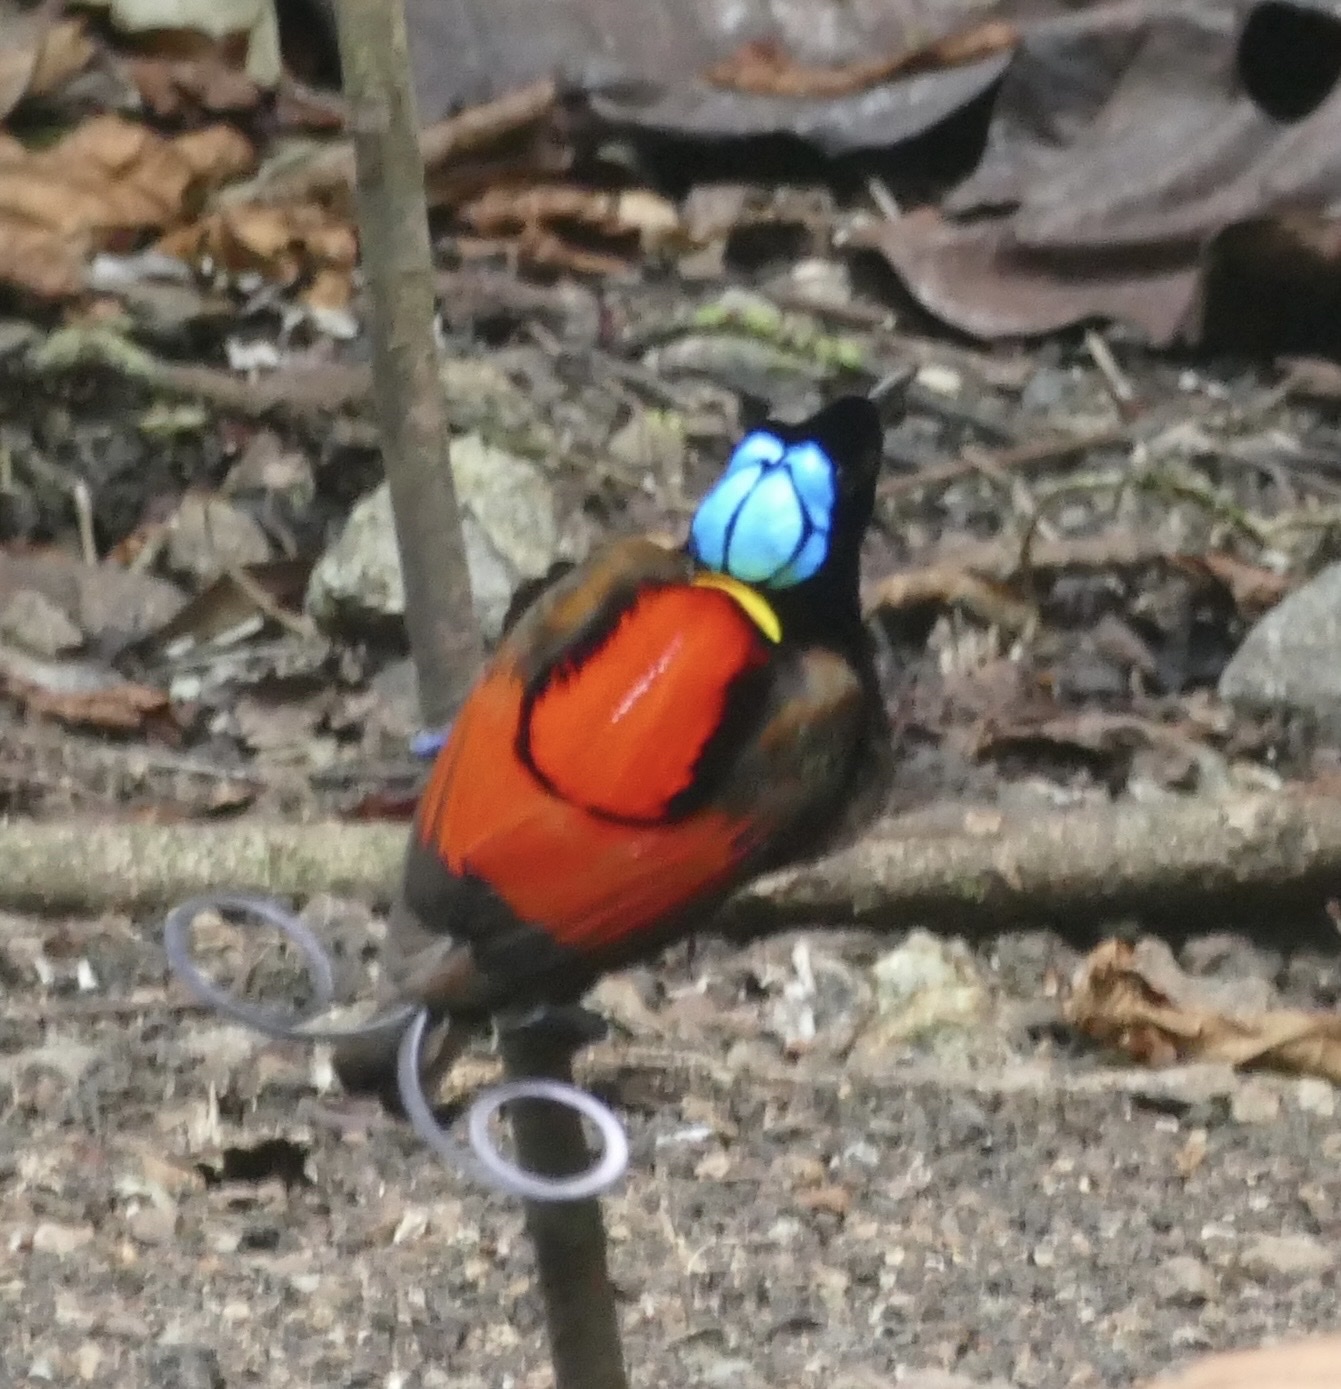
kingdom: Animalia
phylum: Chordata
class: Aves
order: Passeriformes
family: Paradisaeidae
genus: Diphyllodes
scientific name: Diphyllodes respublica
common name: Wilson's bird-of-paradise
